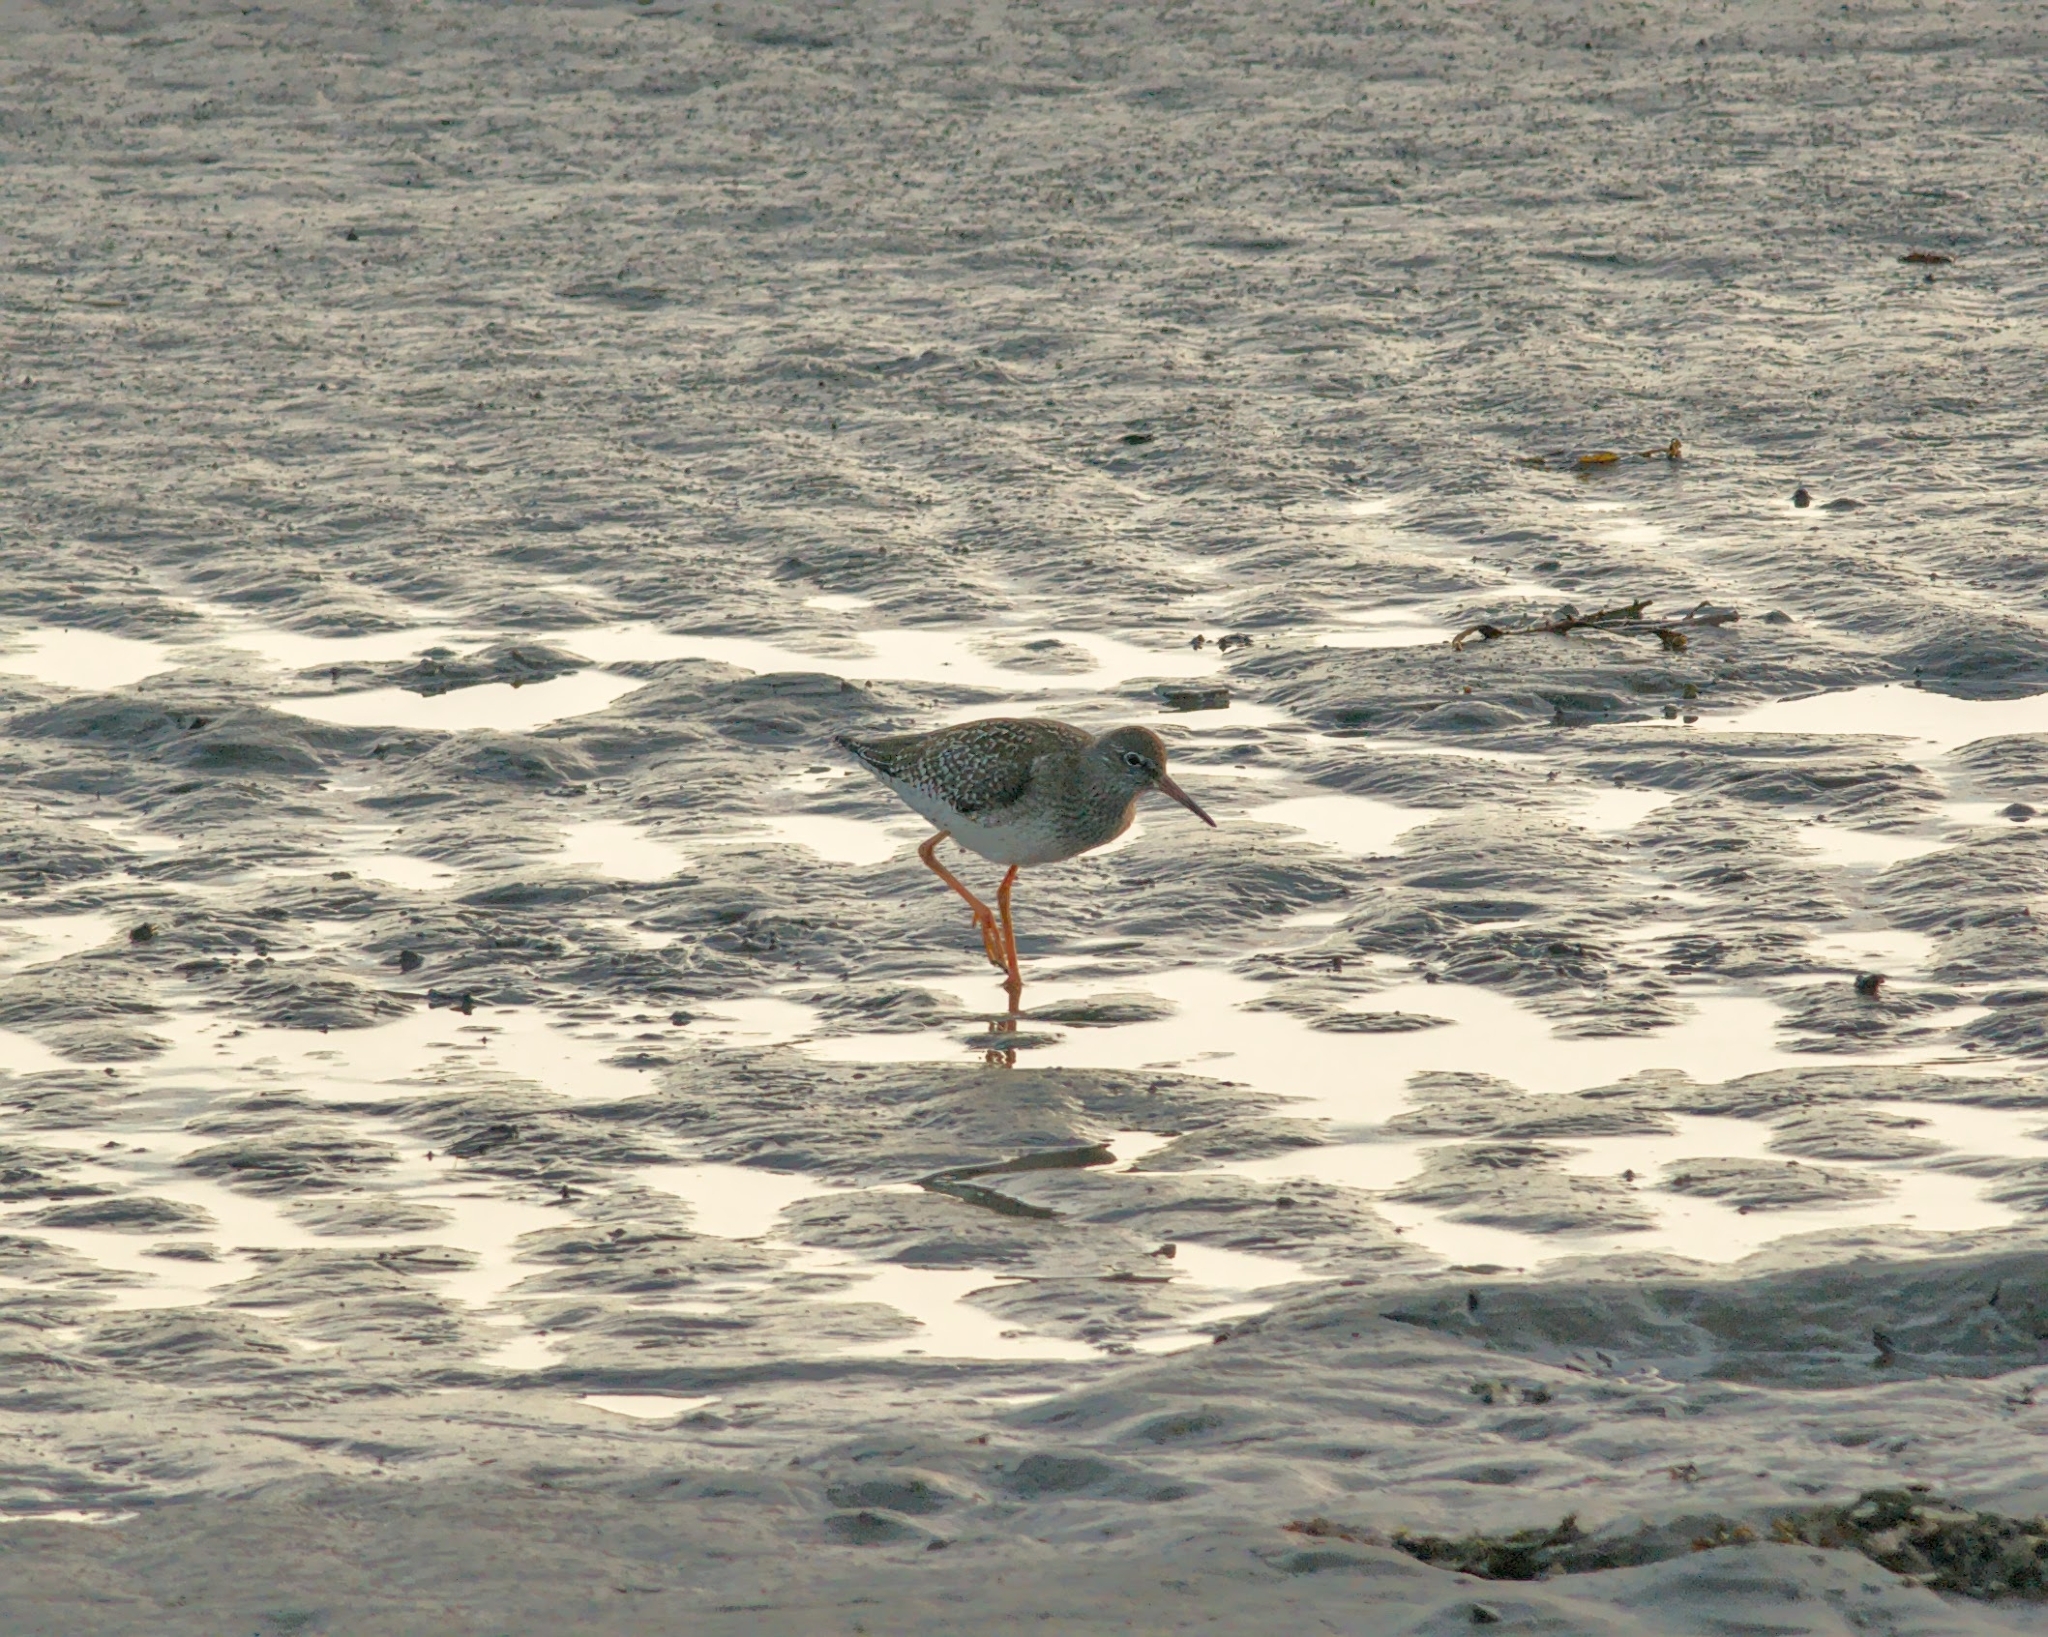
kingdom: Animalia
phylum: Chordata
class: Aves
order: Charadriiformes
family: Scolopacidae
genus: Tringa
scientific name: Tringa totanus
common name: Common redshank
